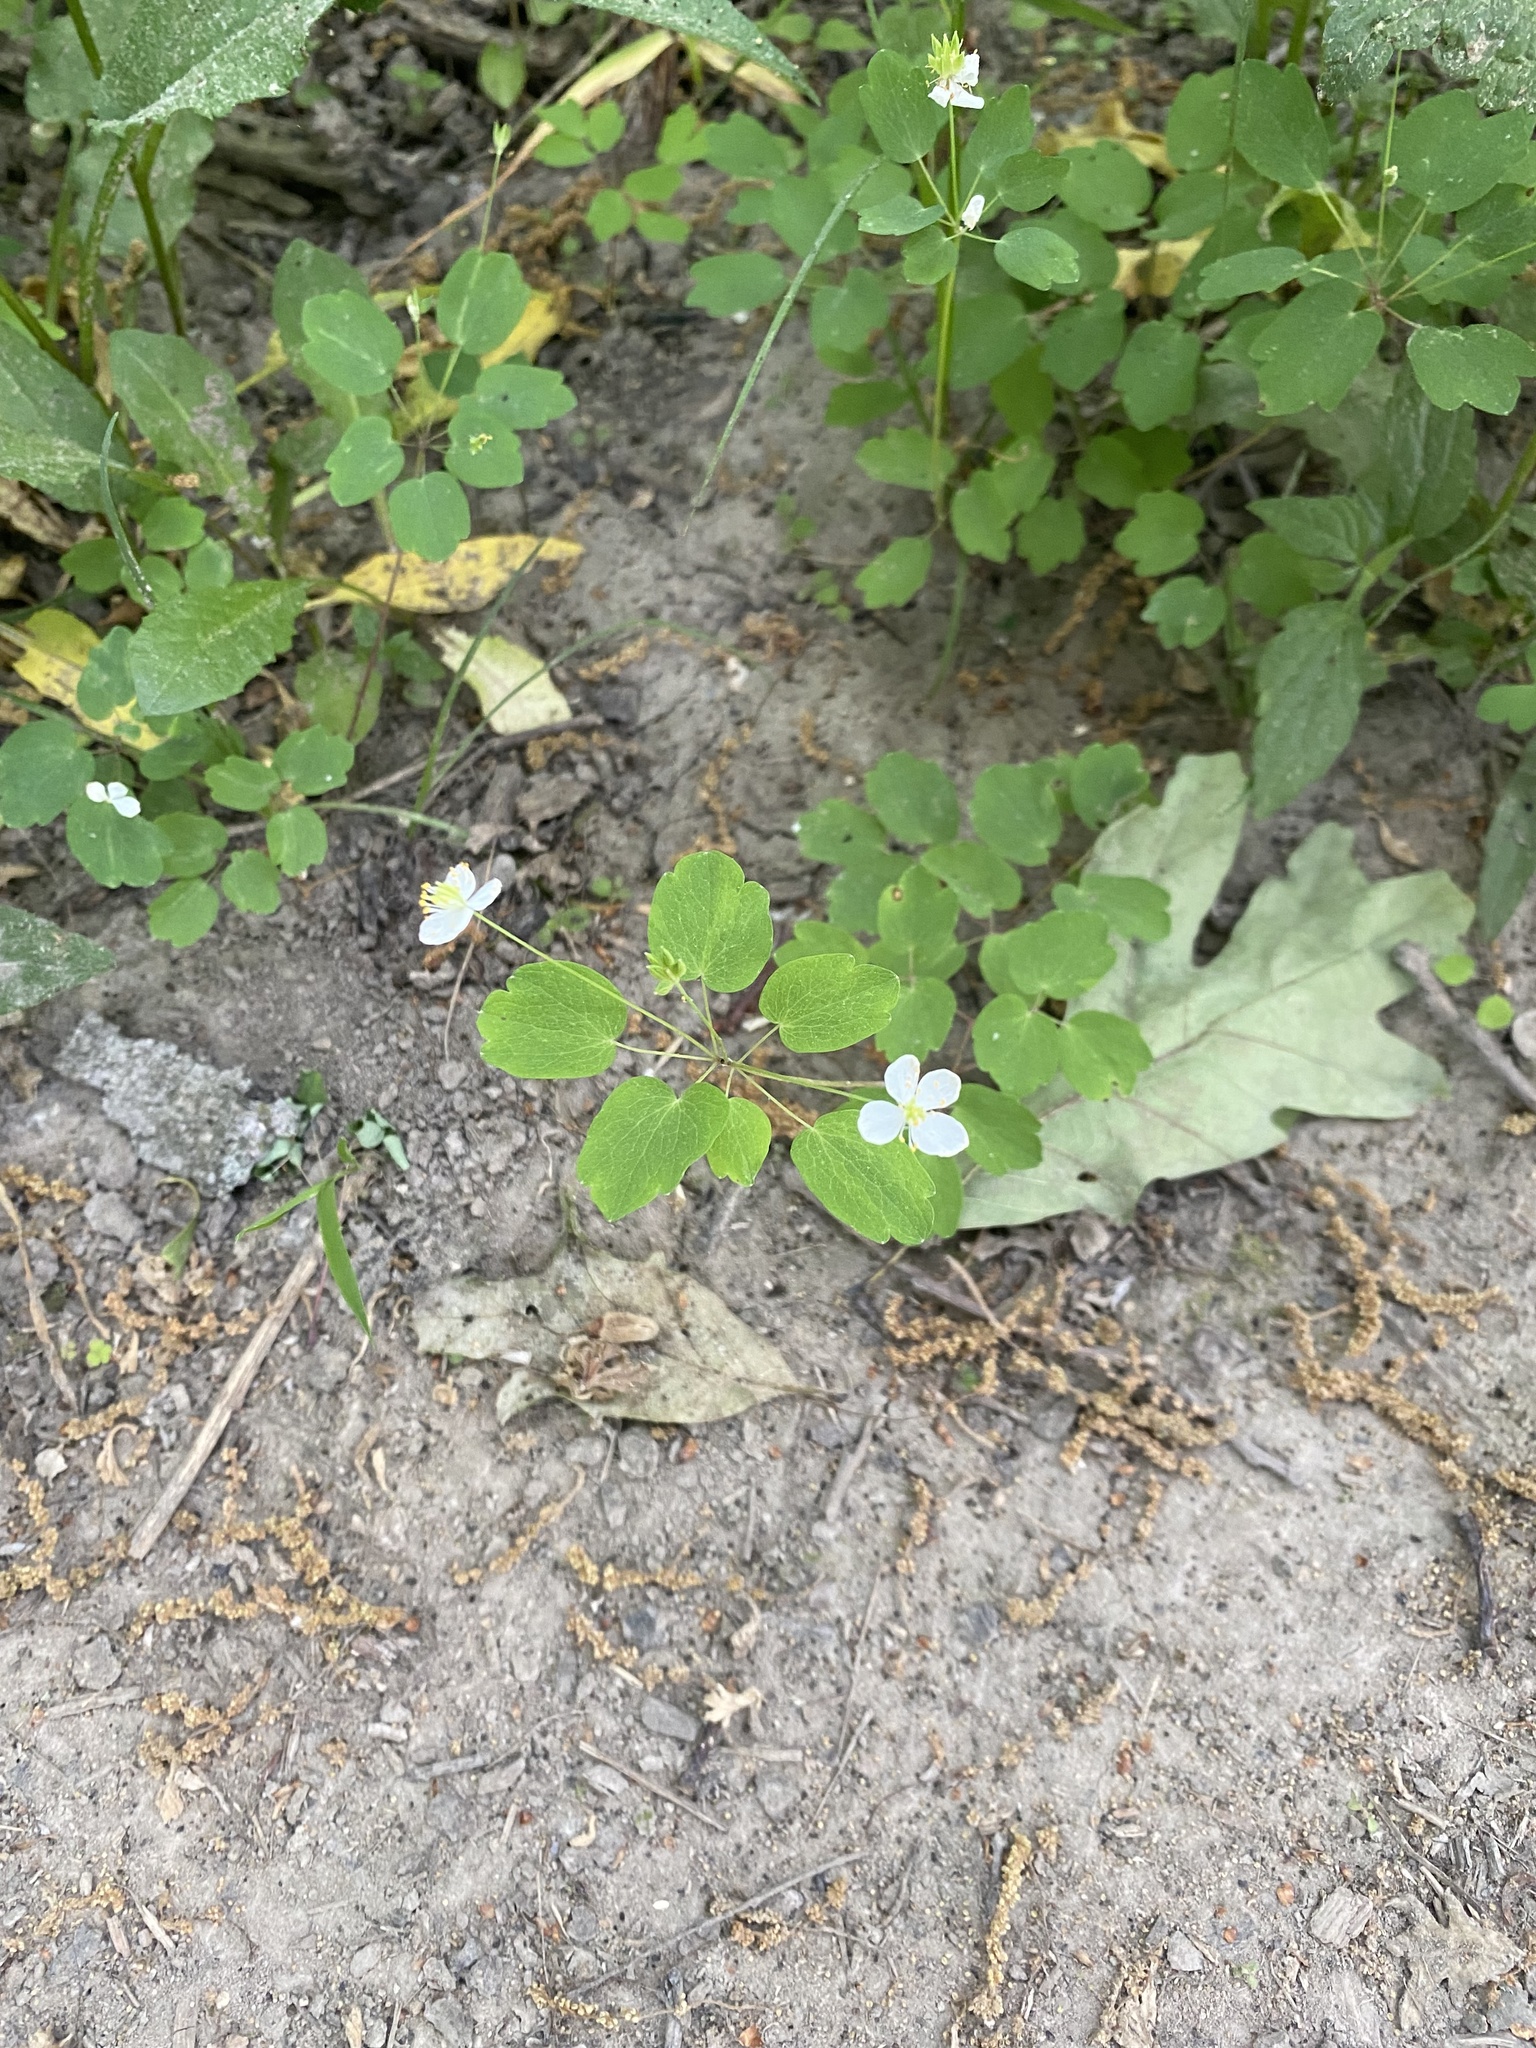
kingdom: Plantae
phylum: Tracheophyta
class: Magnoliopsida
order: Ranunculales
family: Ranunculaceae
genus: Thalictrum
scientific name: Thalictrum thalictroides
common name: Rue-anemone
